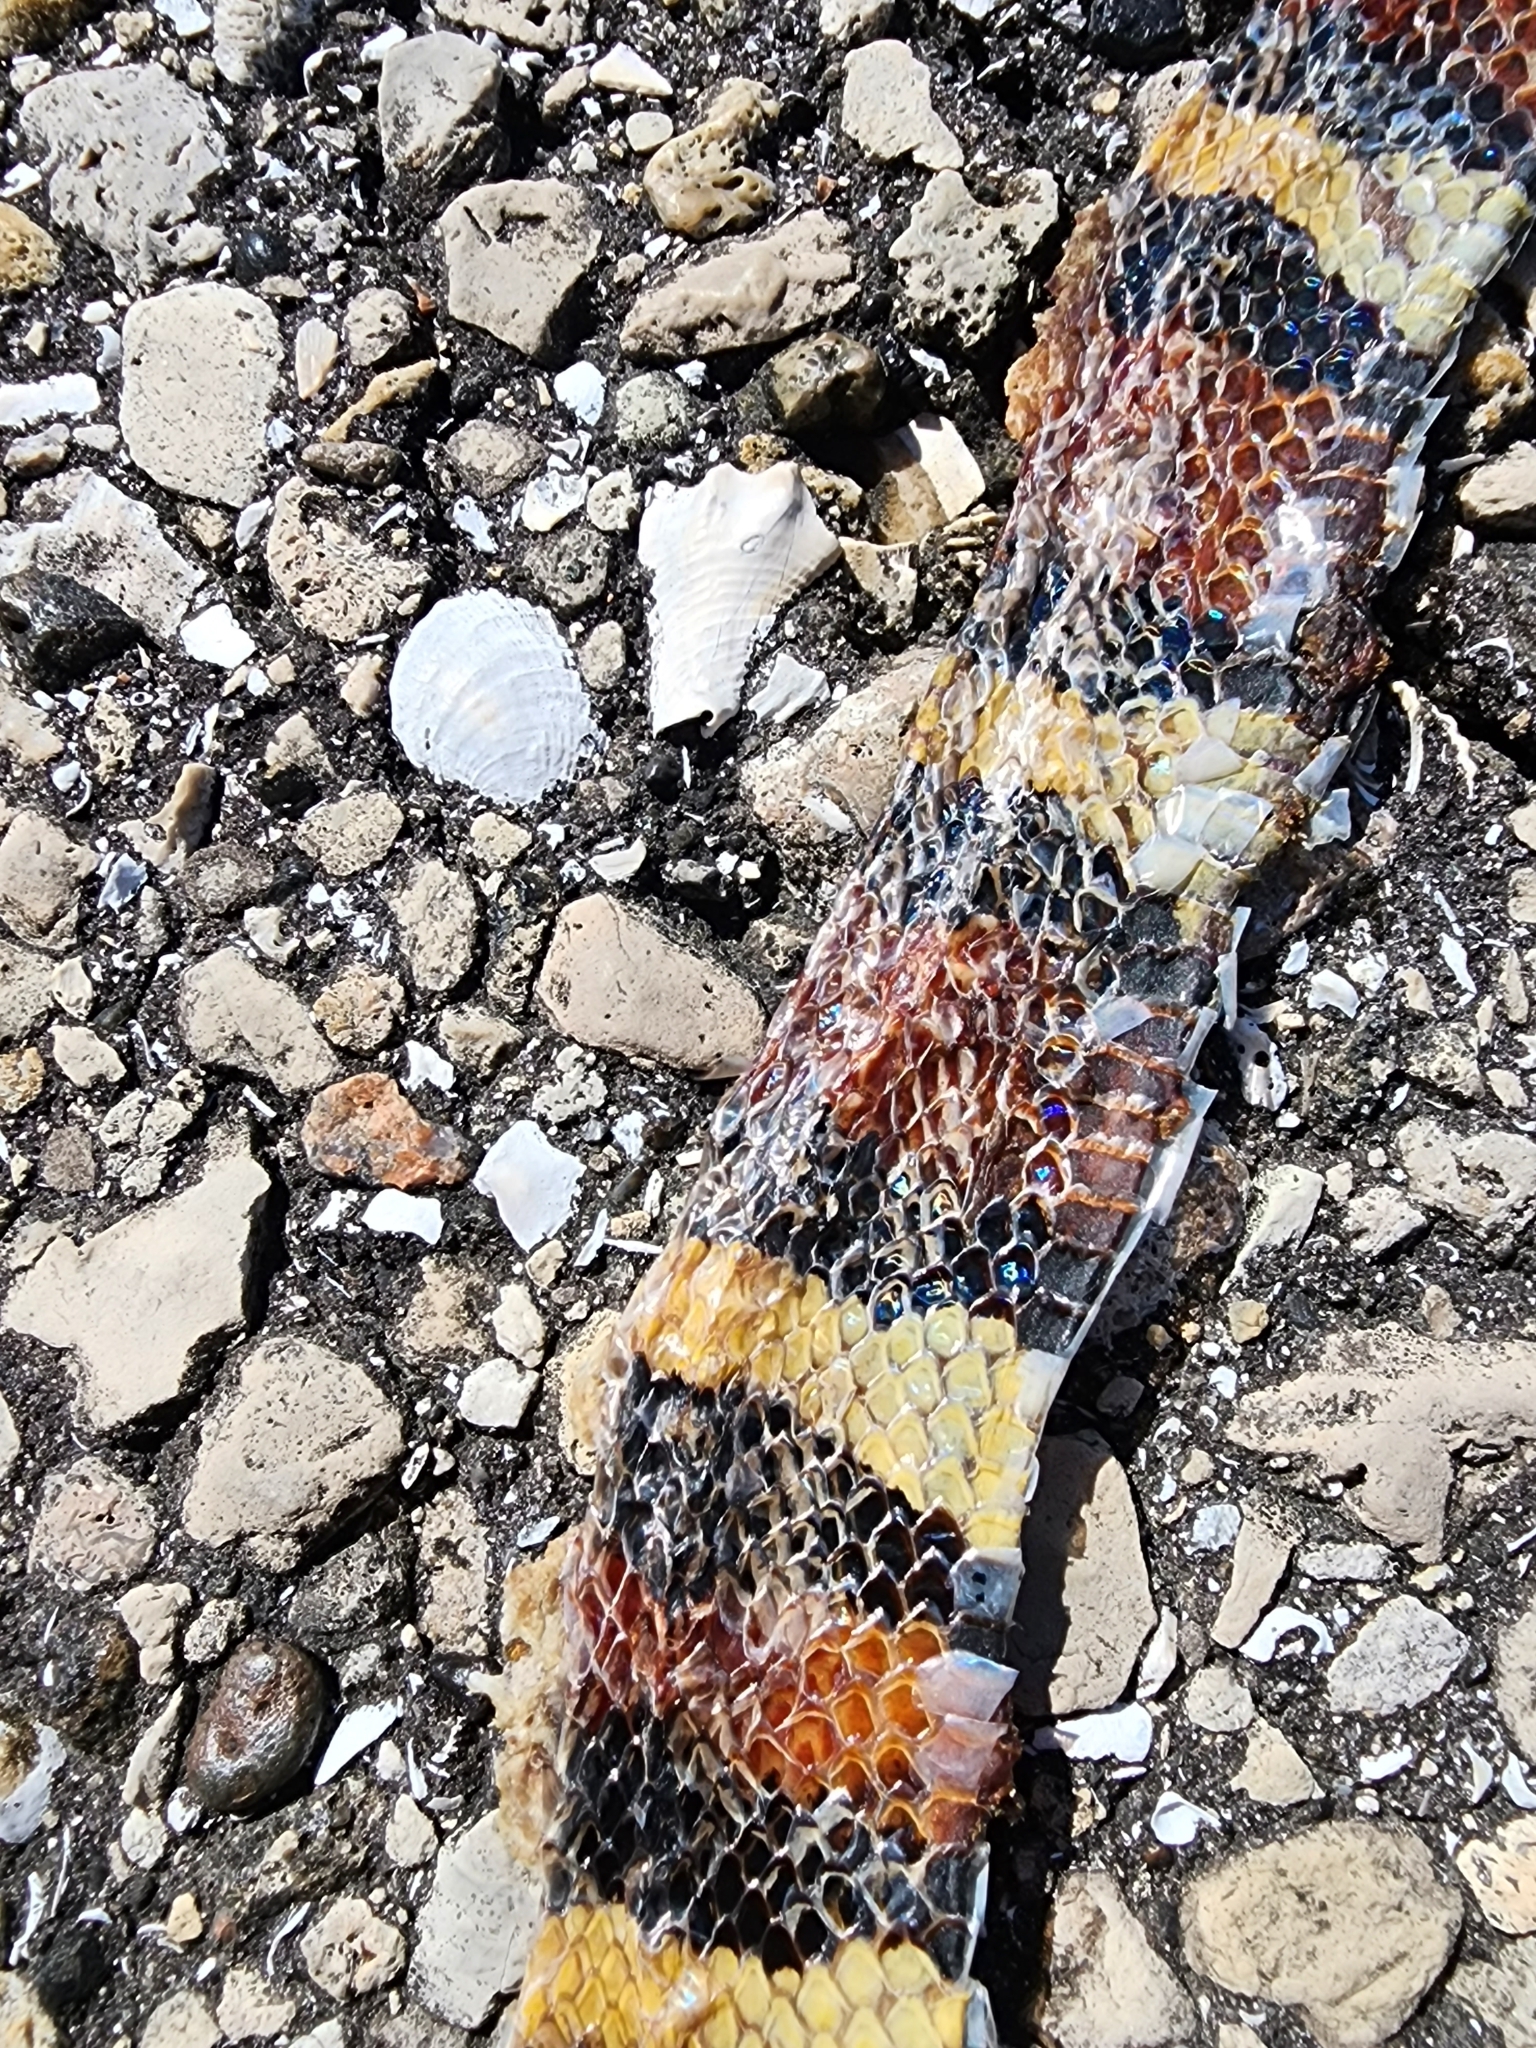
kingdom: Animalia
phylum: Chordata
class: Squamata
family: Colubridae
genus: Lampropeltis
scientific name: Lampropeltis elapsoides
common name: Scarlet kingsnake
